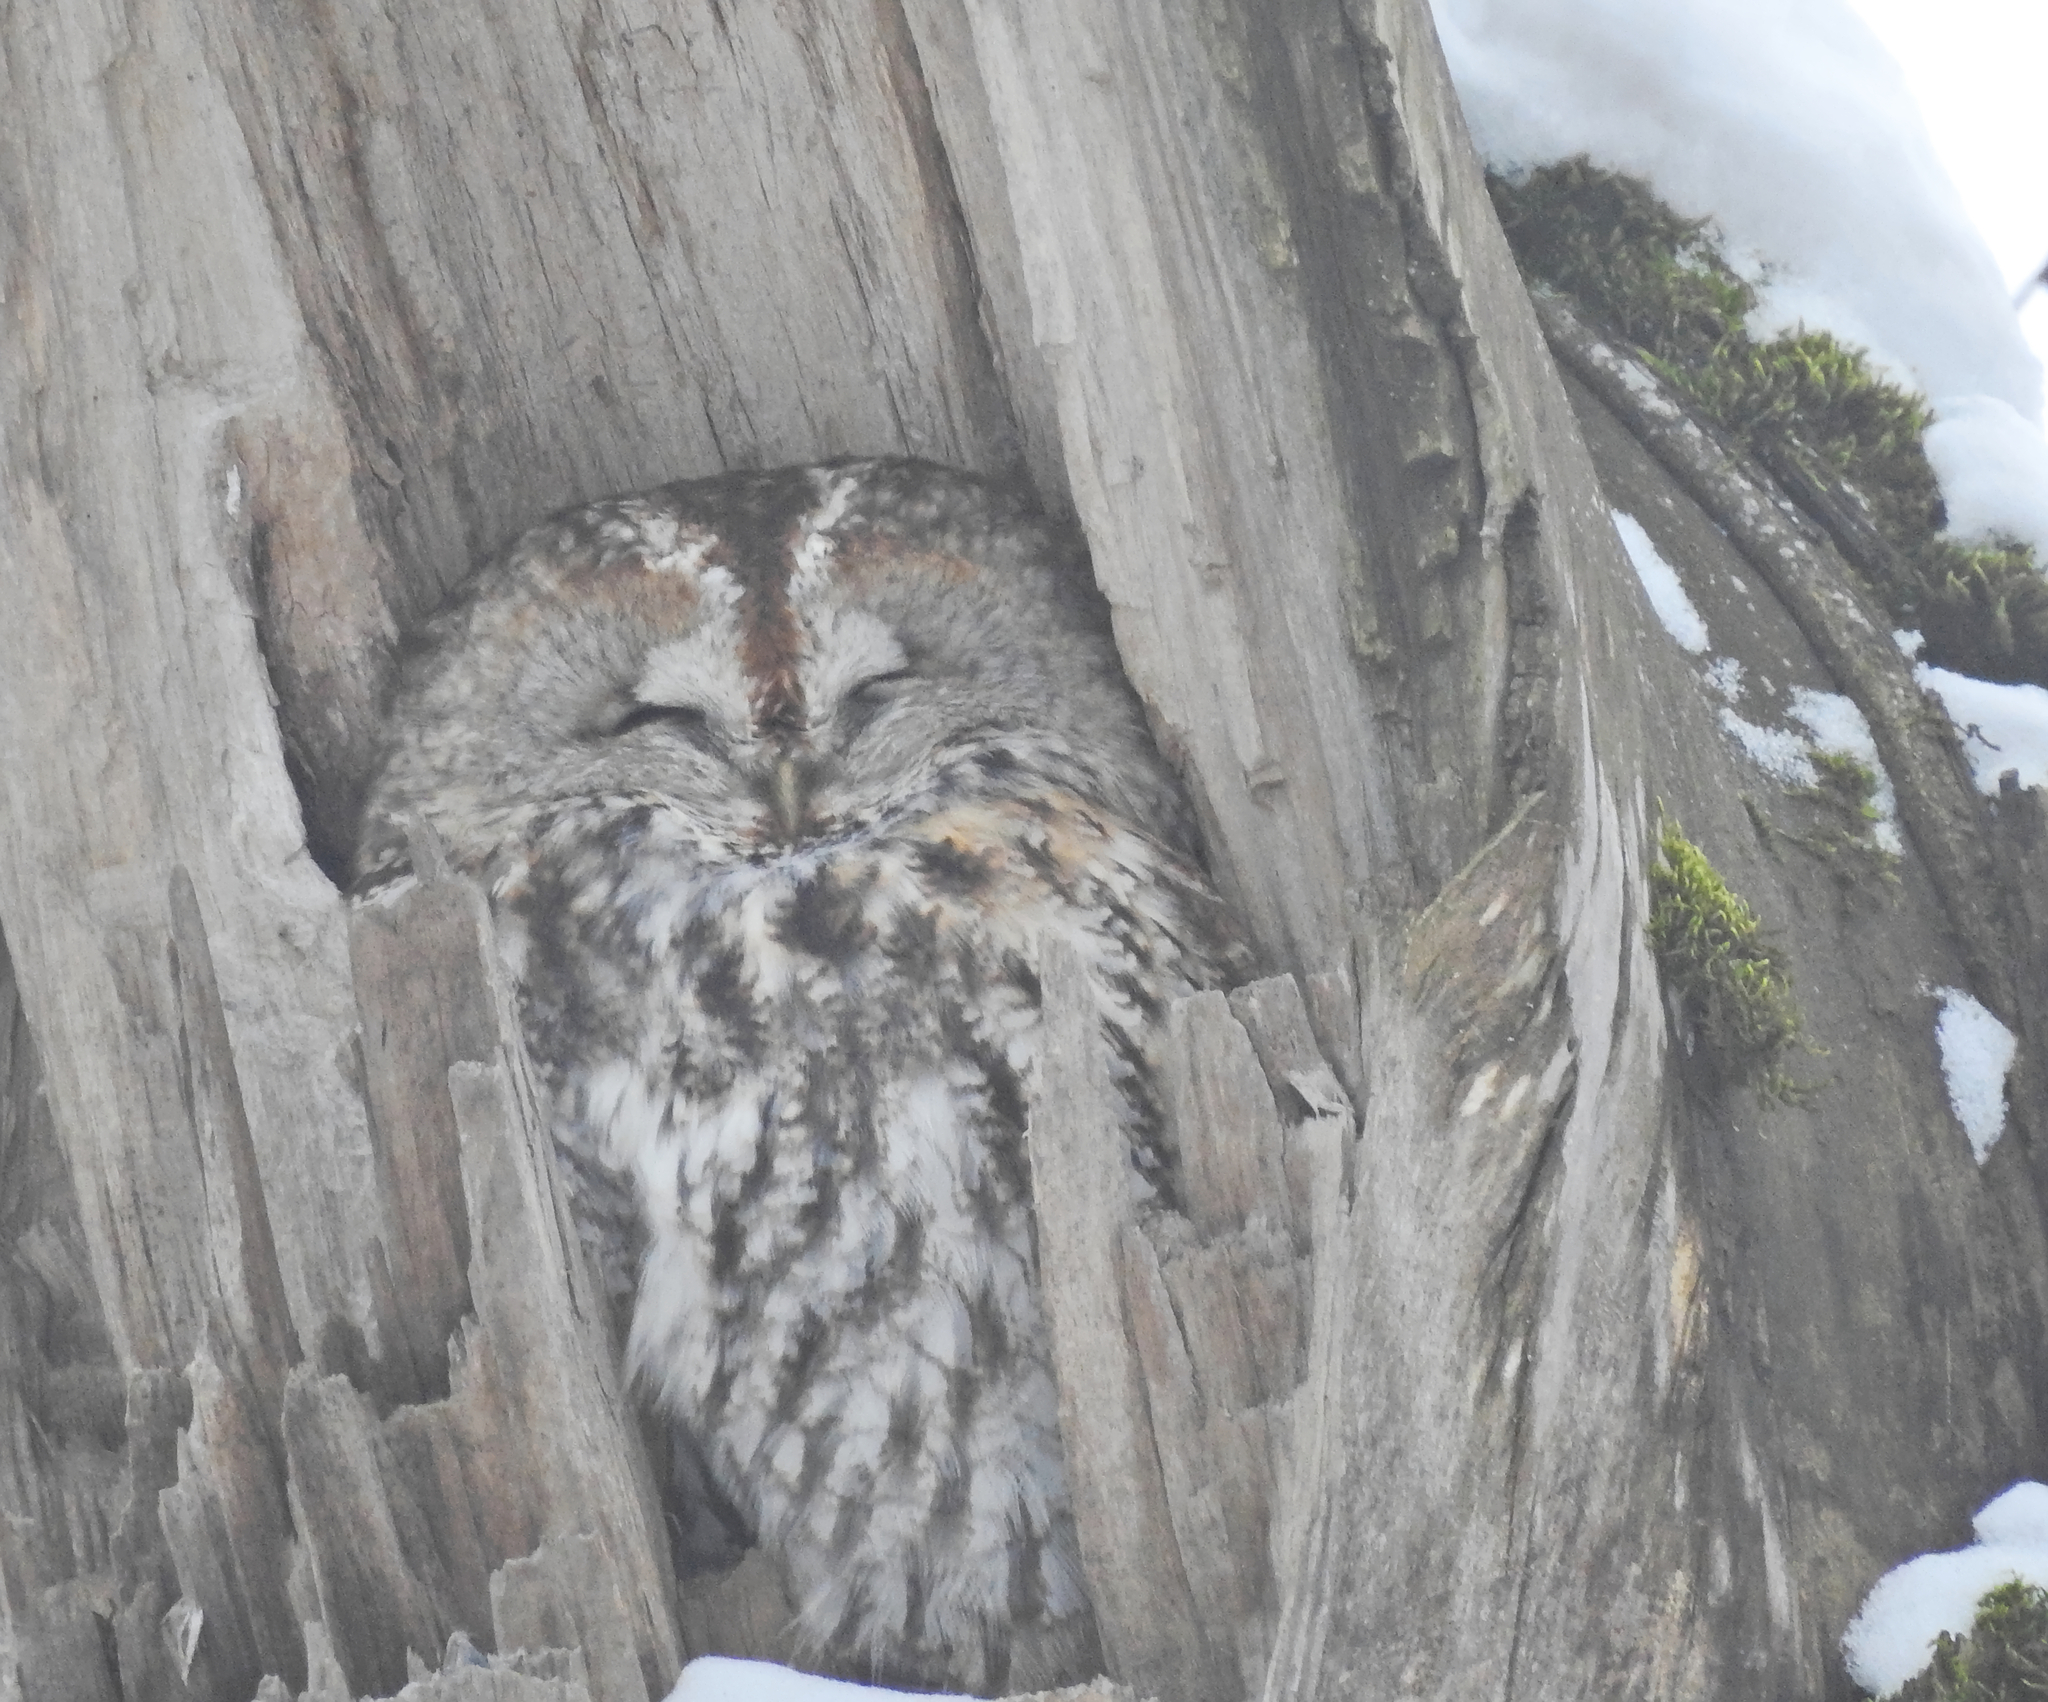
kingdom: Animalia
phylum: Chordata
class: Aves
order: Strigiformes
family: Strigidae
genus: Strix
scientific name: Strix aluco
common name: Tawny owl
